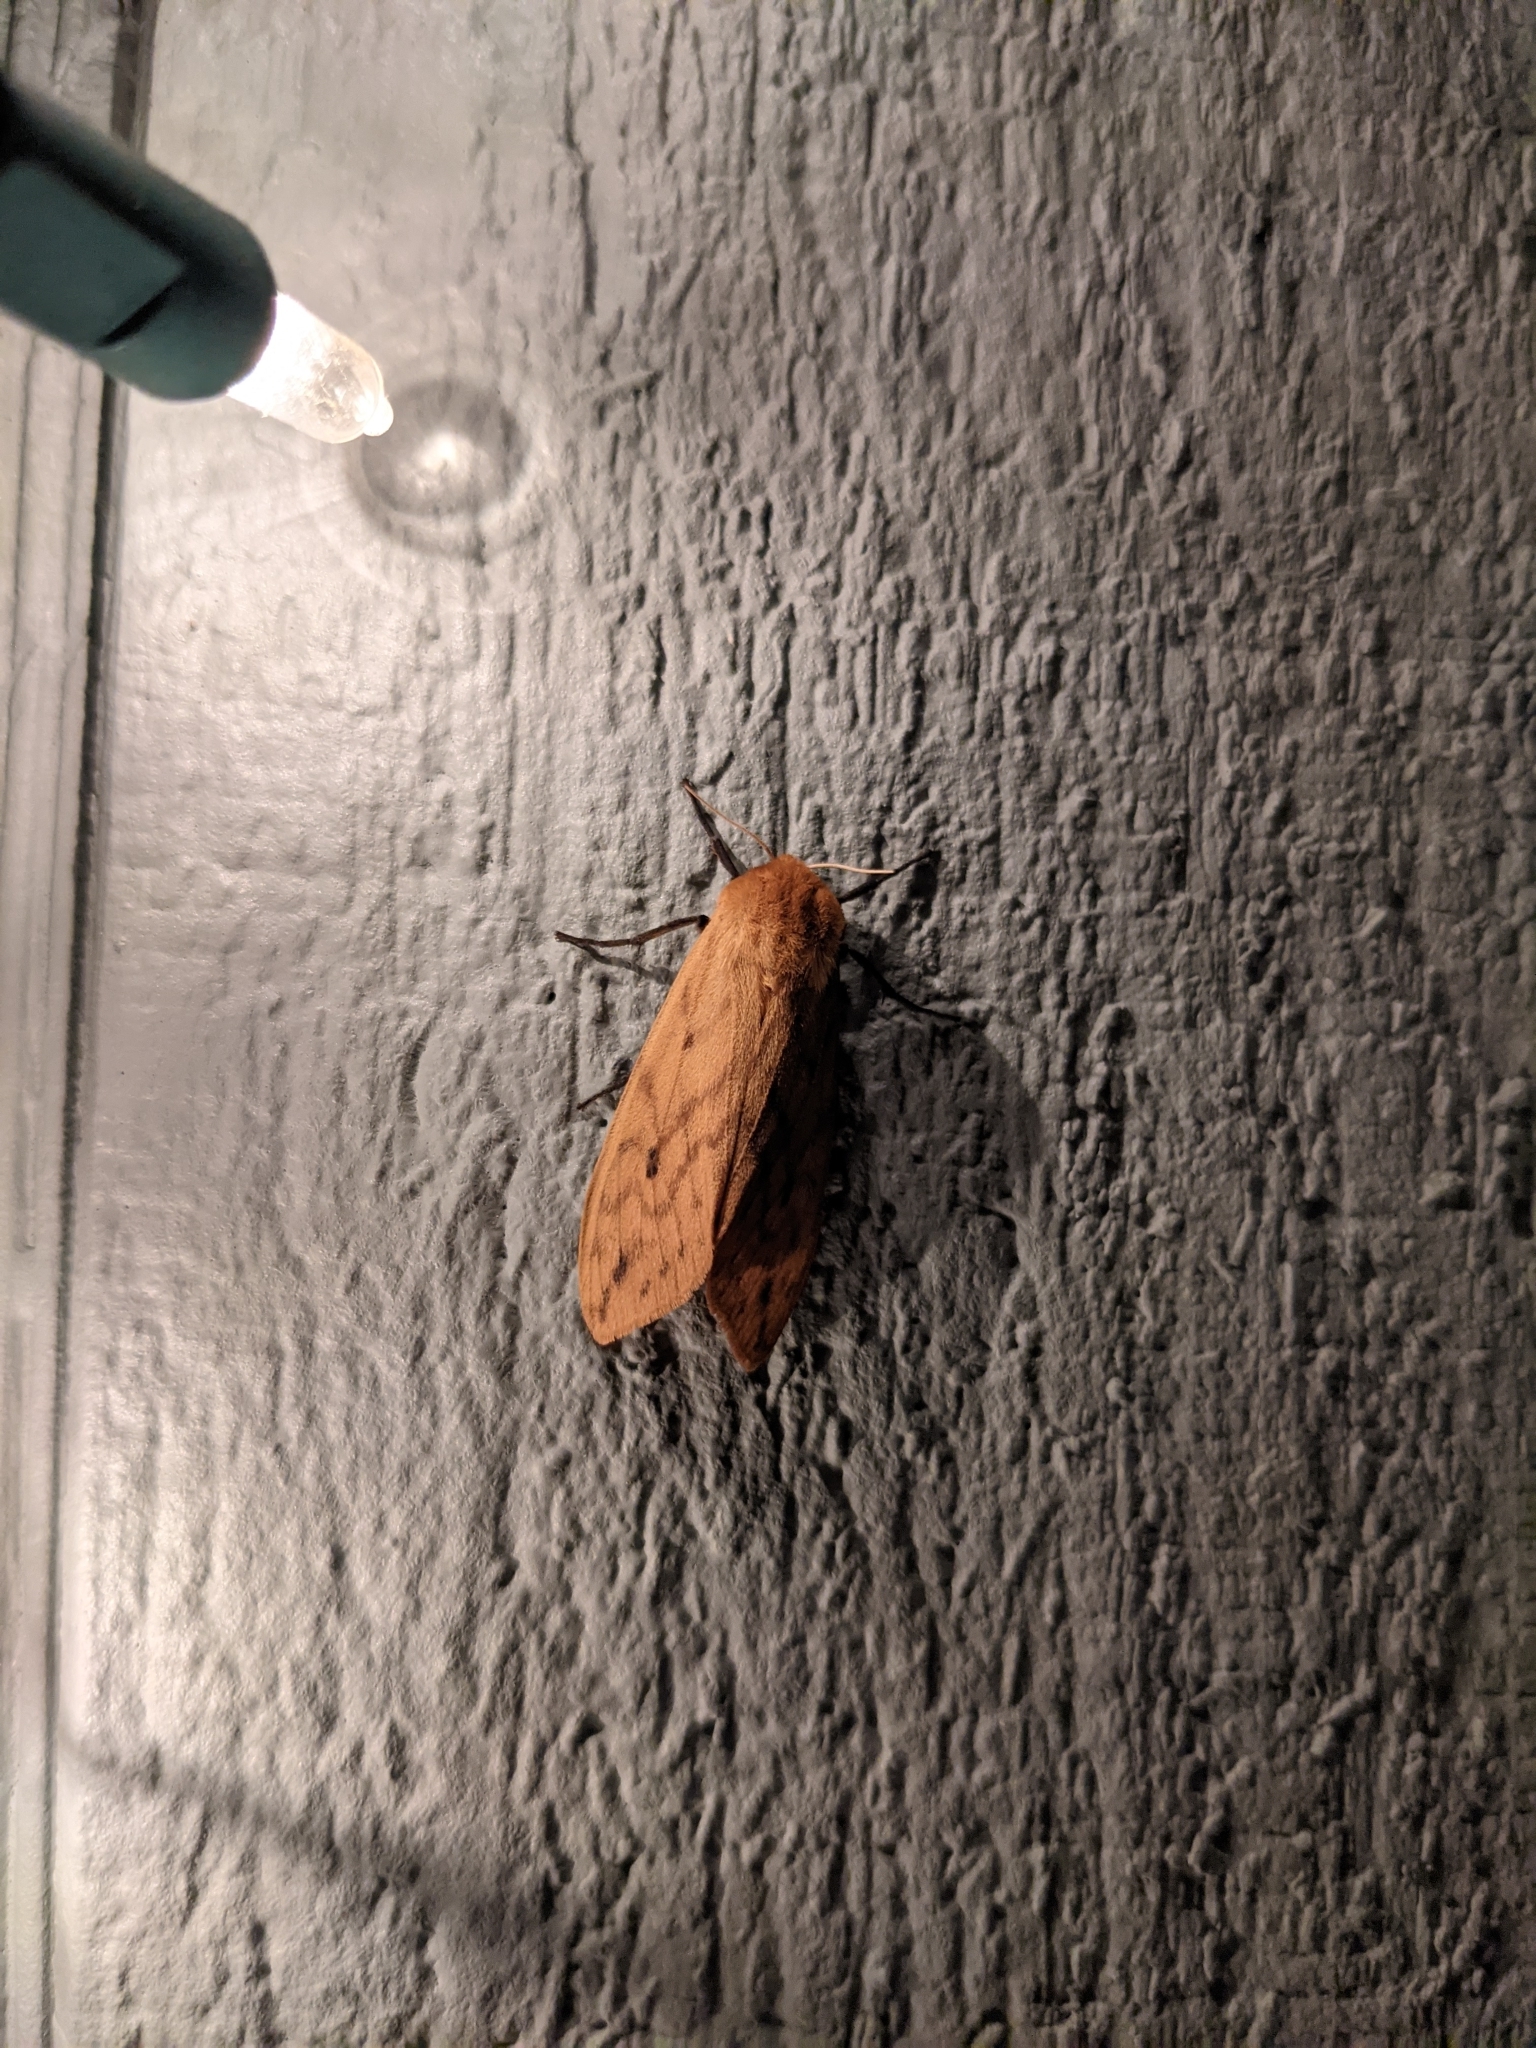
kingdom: Animalia
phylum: Arthropoda
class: Insecta
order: Lepidoptera
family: Erebidae
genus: Pyrrharctia
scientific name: Pyrrharctia isabella
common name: Isabella tiger moth
